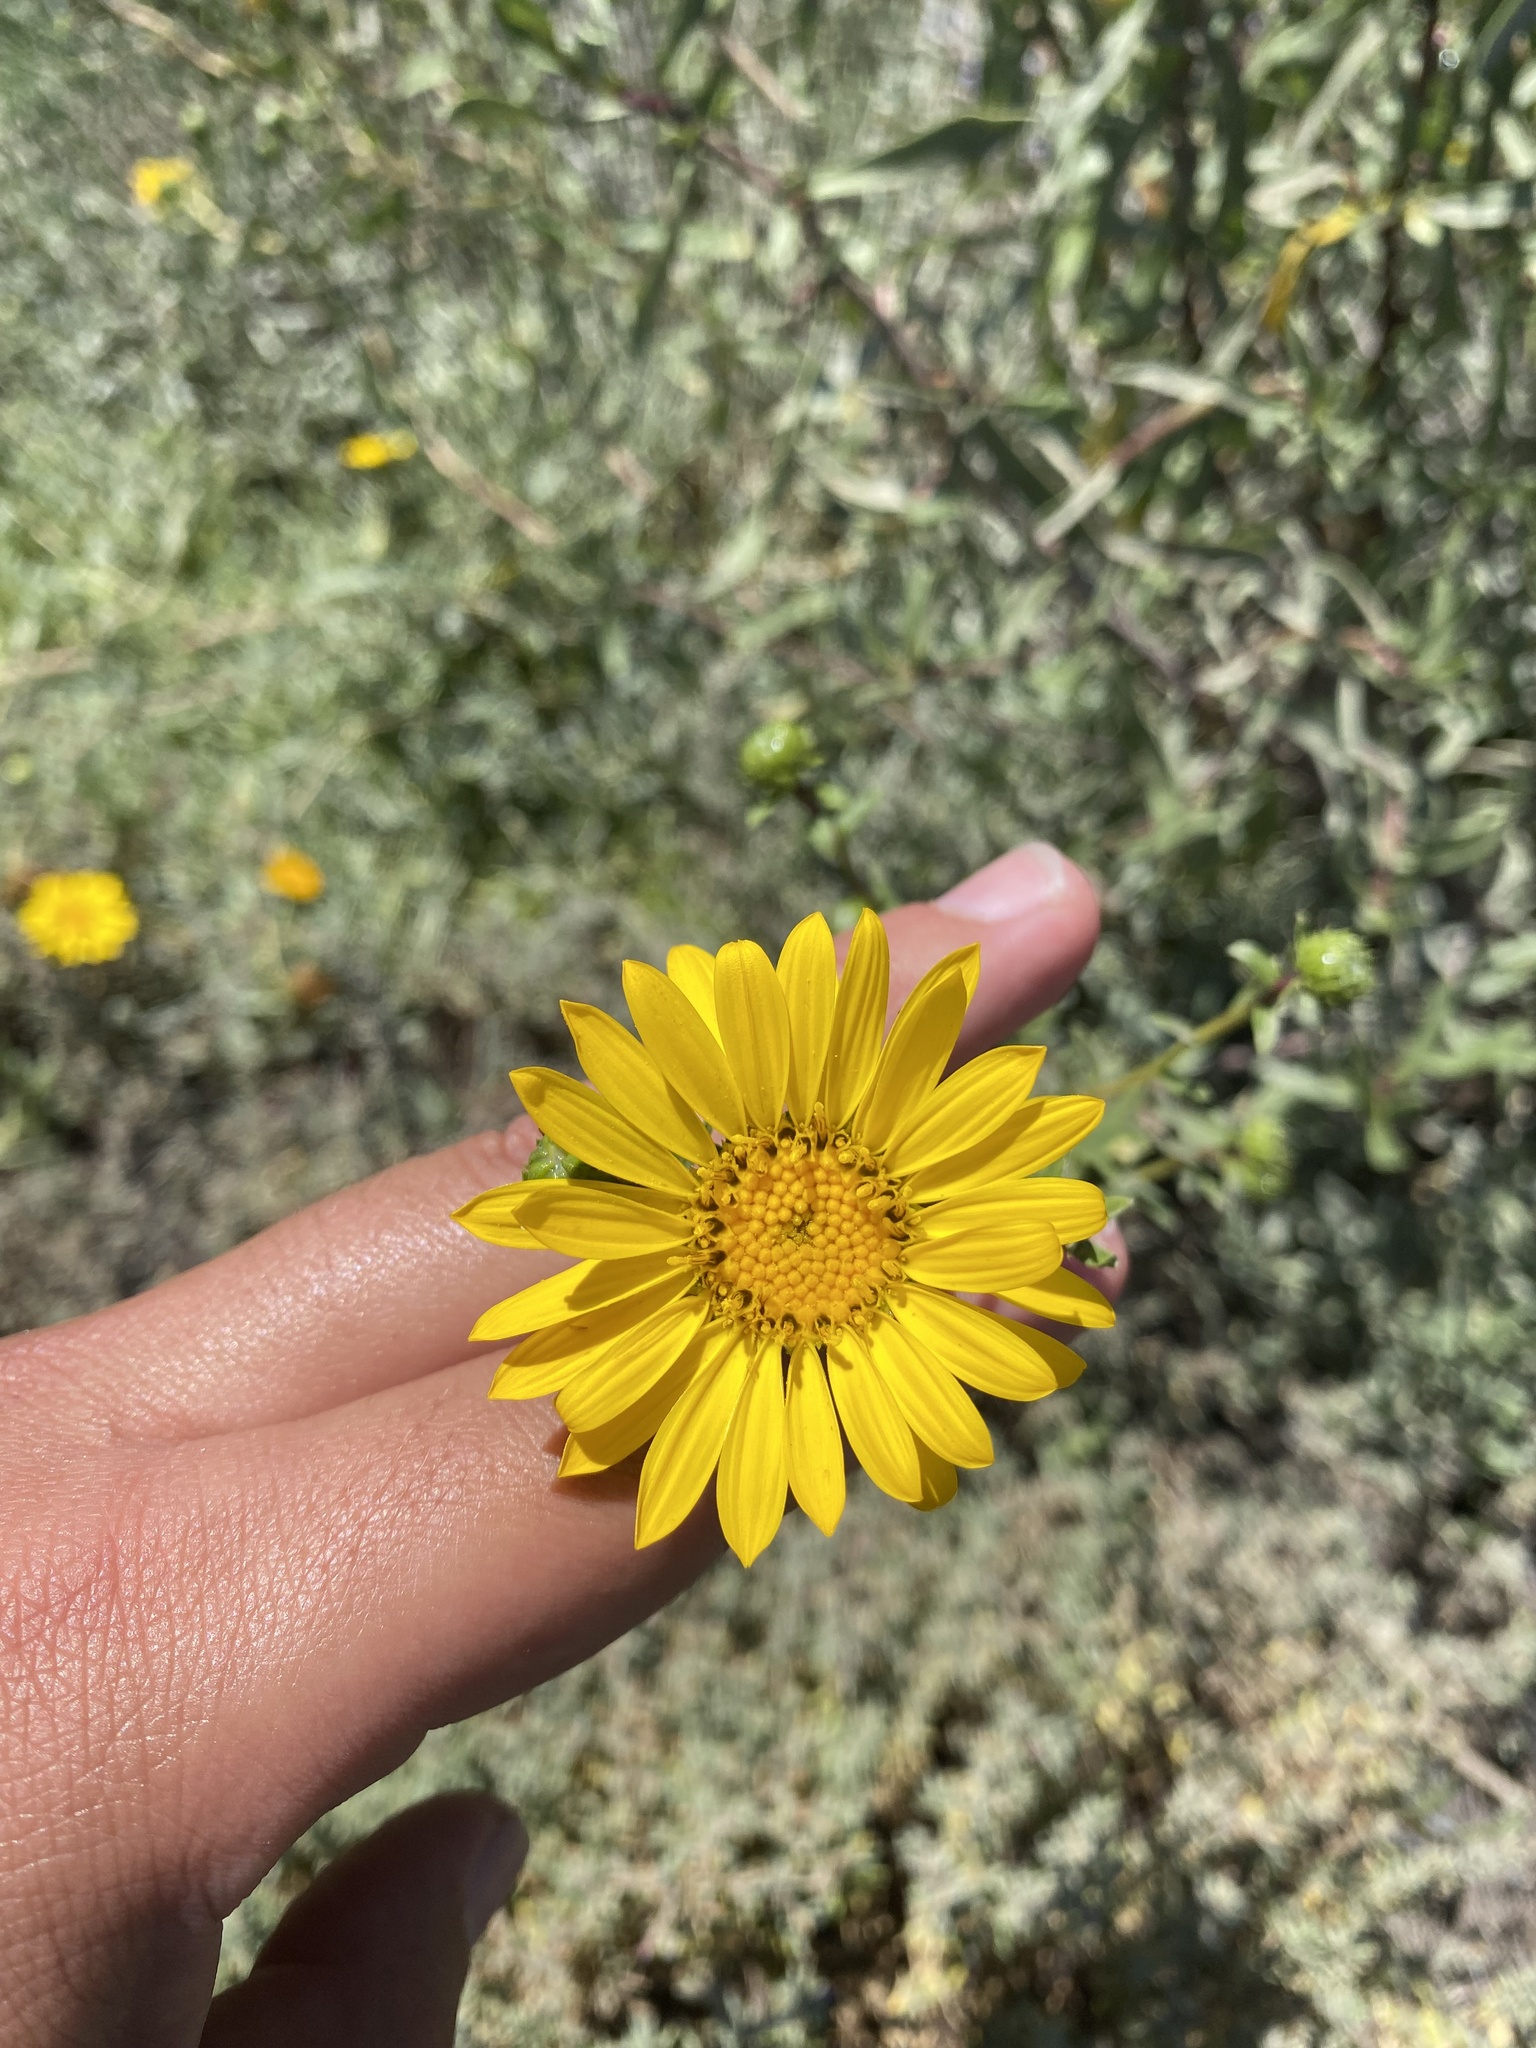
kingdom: Plantae
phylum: Tracheophyta
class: Magnoliopsida
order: Asterales
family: Asteraceae
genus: Grindelia
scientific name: Grindelia hirsutula
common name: Hairy gumweed
